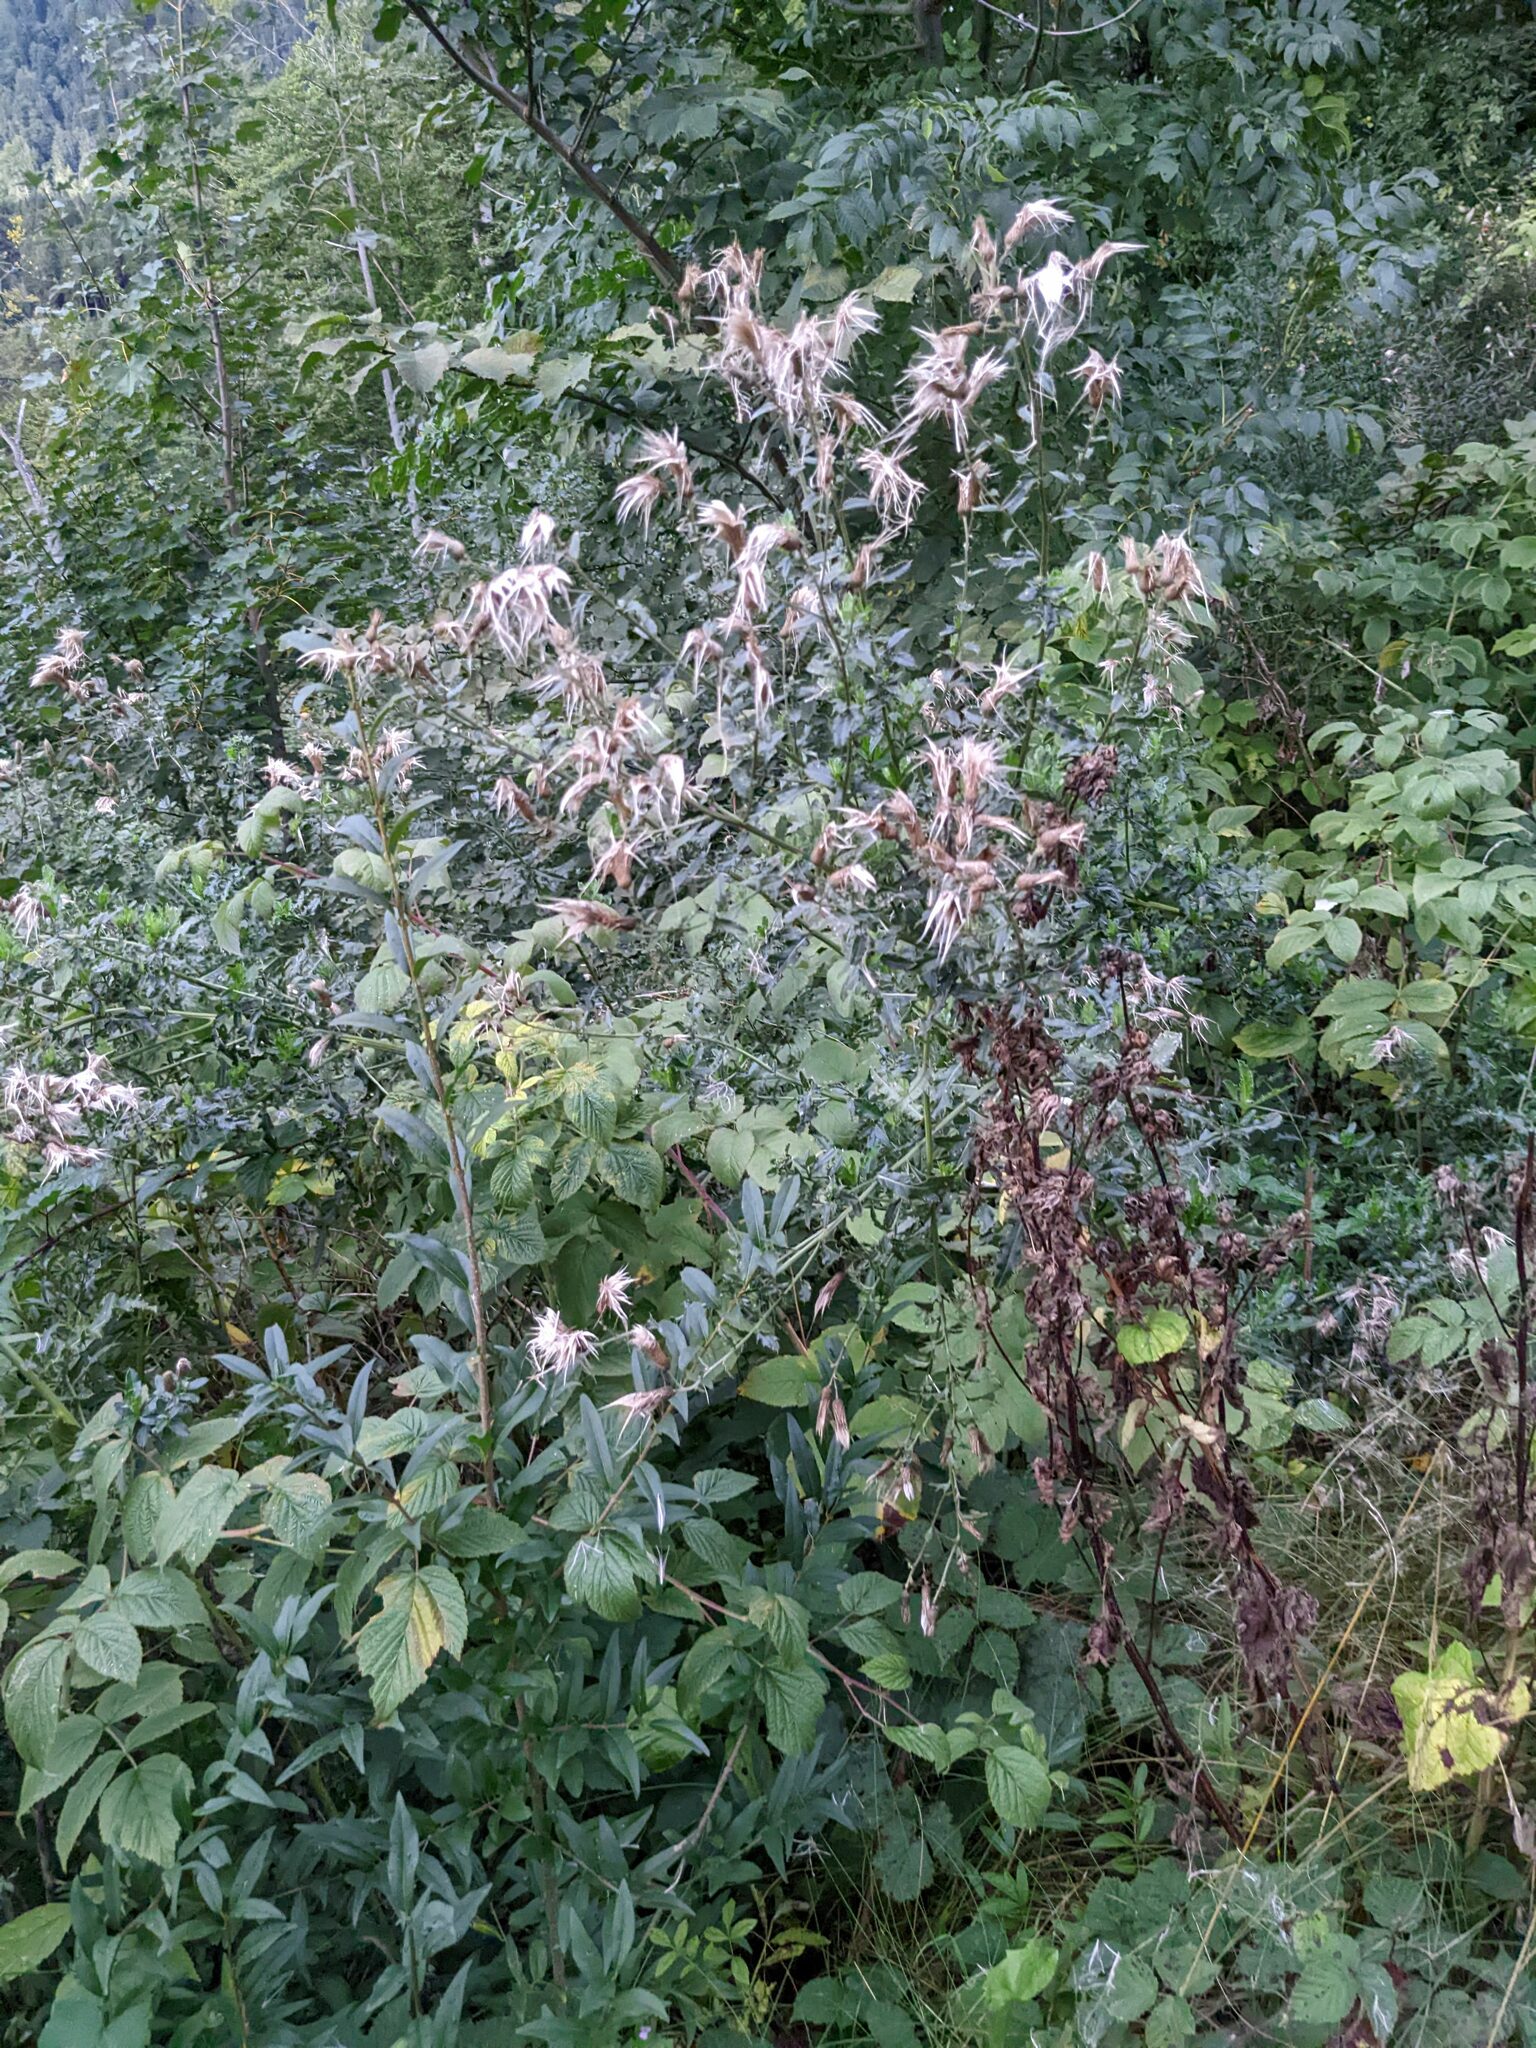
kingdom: Plantae
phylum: Tracheophyta
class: Magnoliopsida
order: Asterales
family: Asteraceae
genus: Cirsium
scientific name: Cirsium arvense
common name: Creeping thistle
